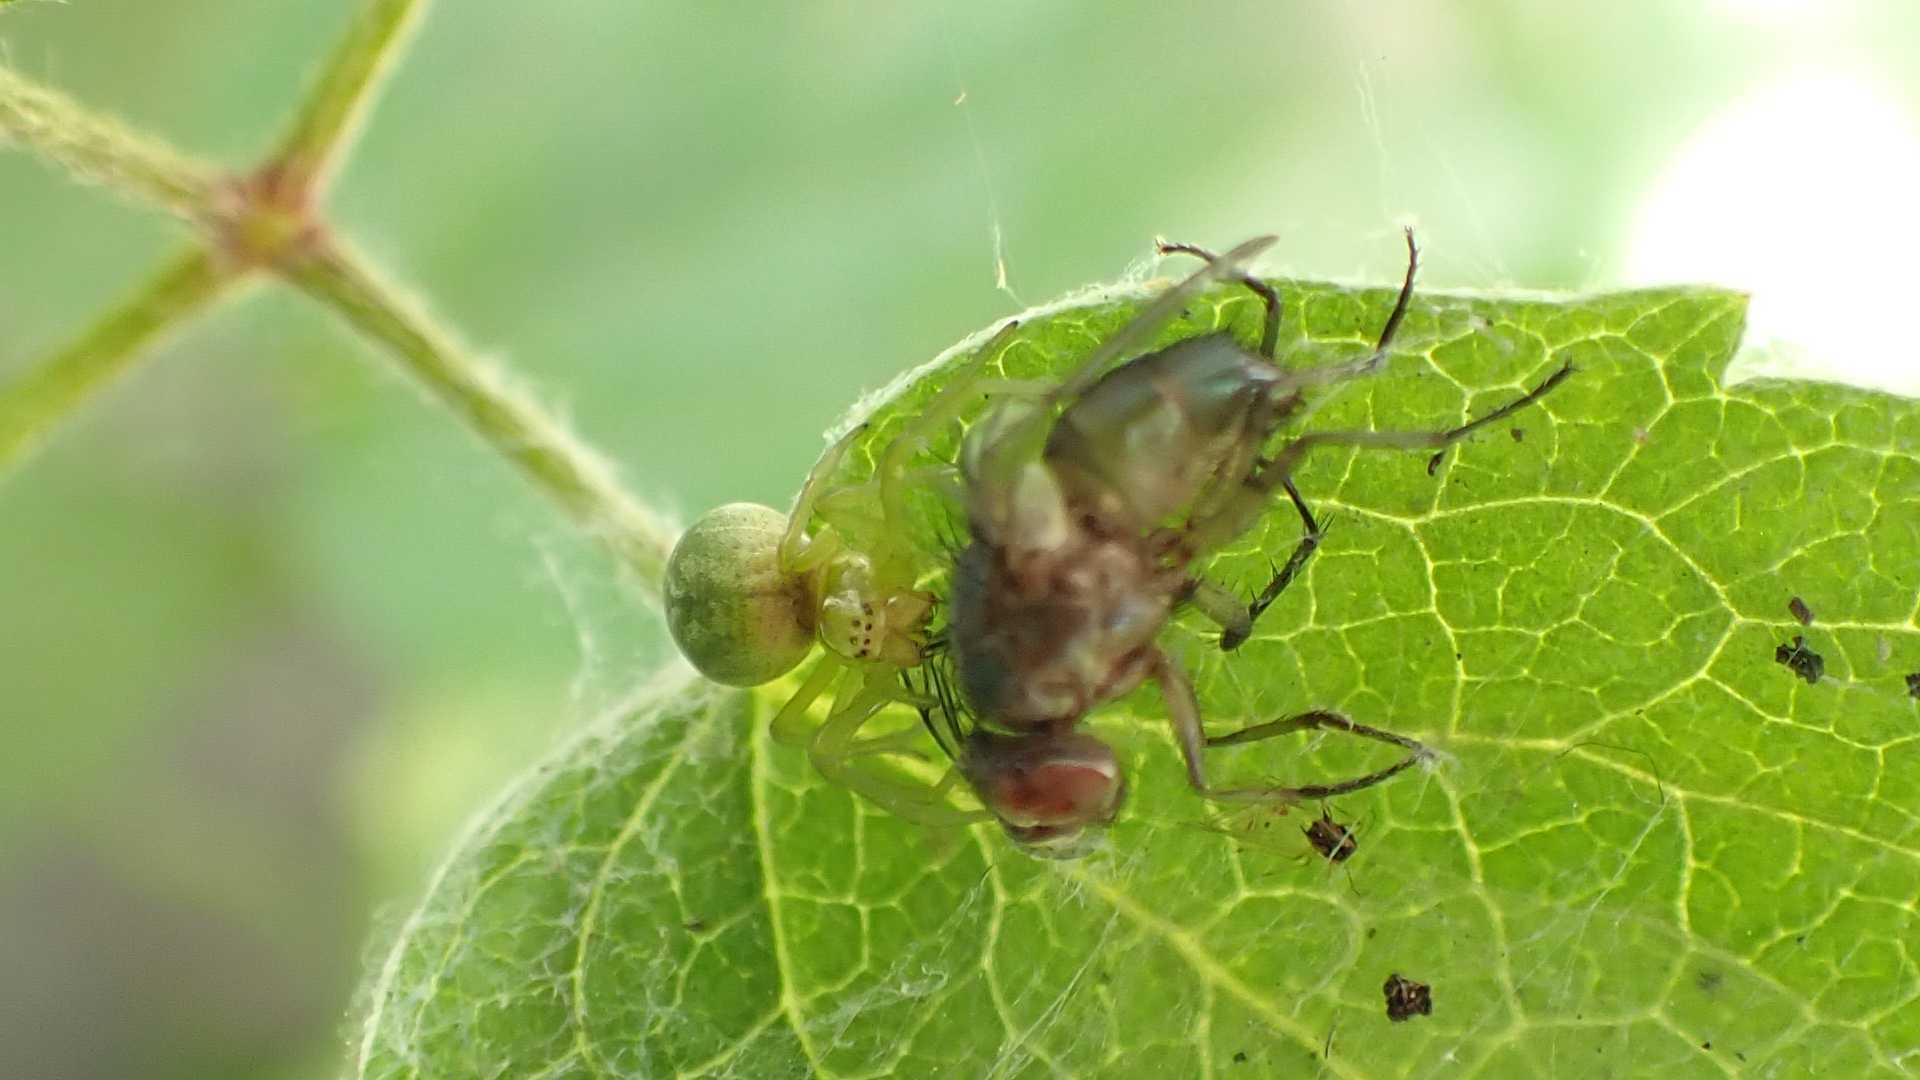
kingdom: Animalia
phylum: Arthropoda
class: Arachnida
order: Araneae
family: Dictynidae
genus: Nigma
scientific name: Nigma walckenaeri
